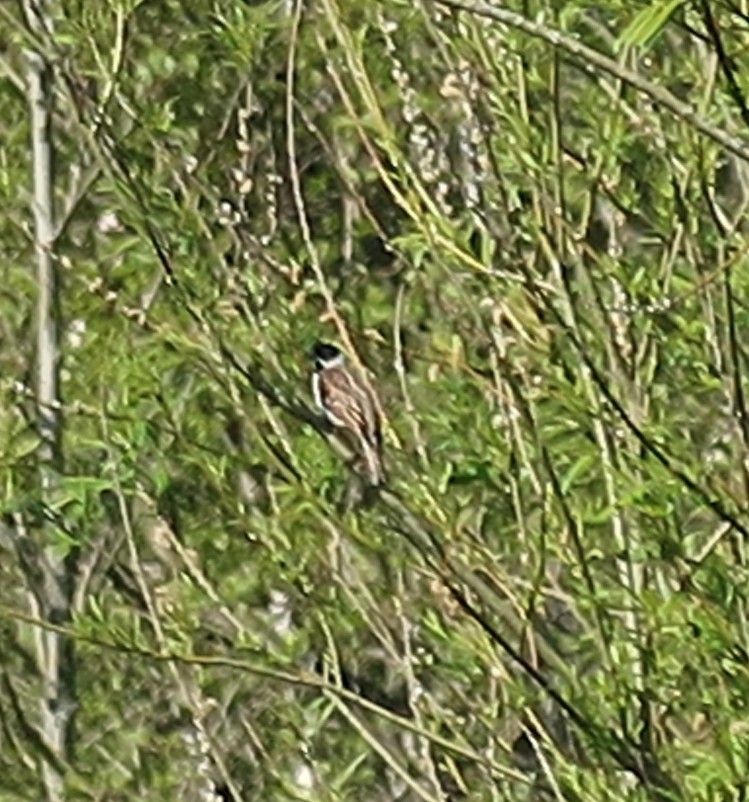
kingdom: Animalia
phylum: Chordata
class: Aves
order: Passeriformes
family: Emberizidae
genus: Emberiza
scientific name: Emberiza schoeniclus
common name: Reed bunting
